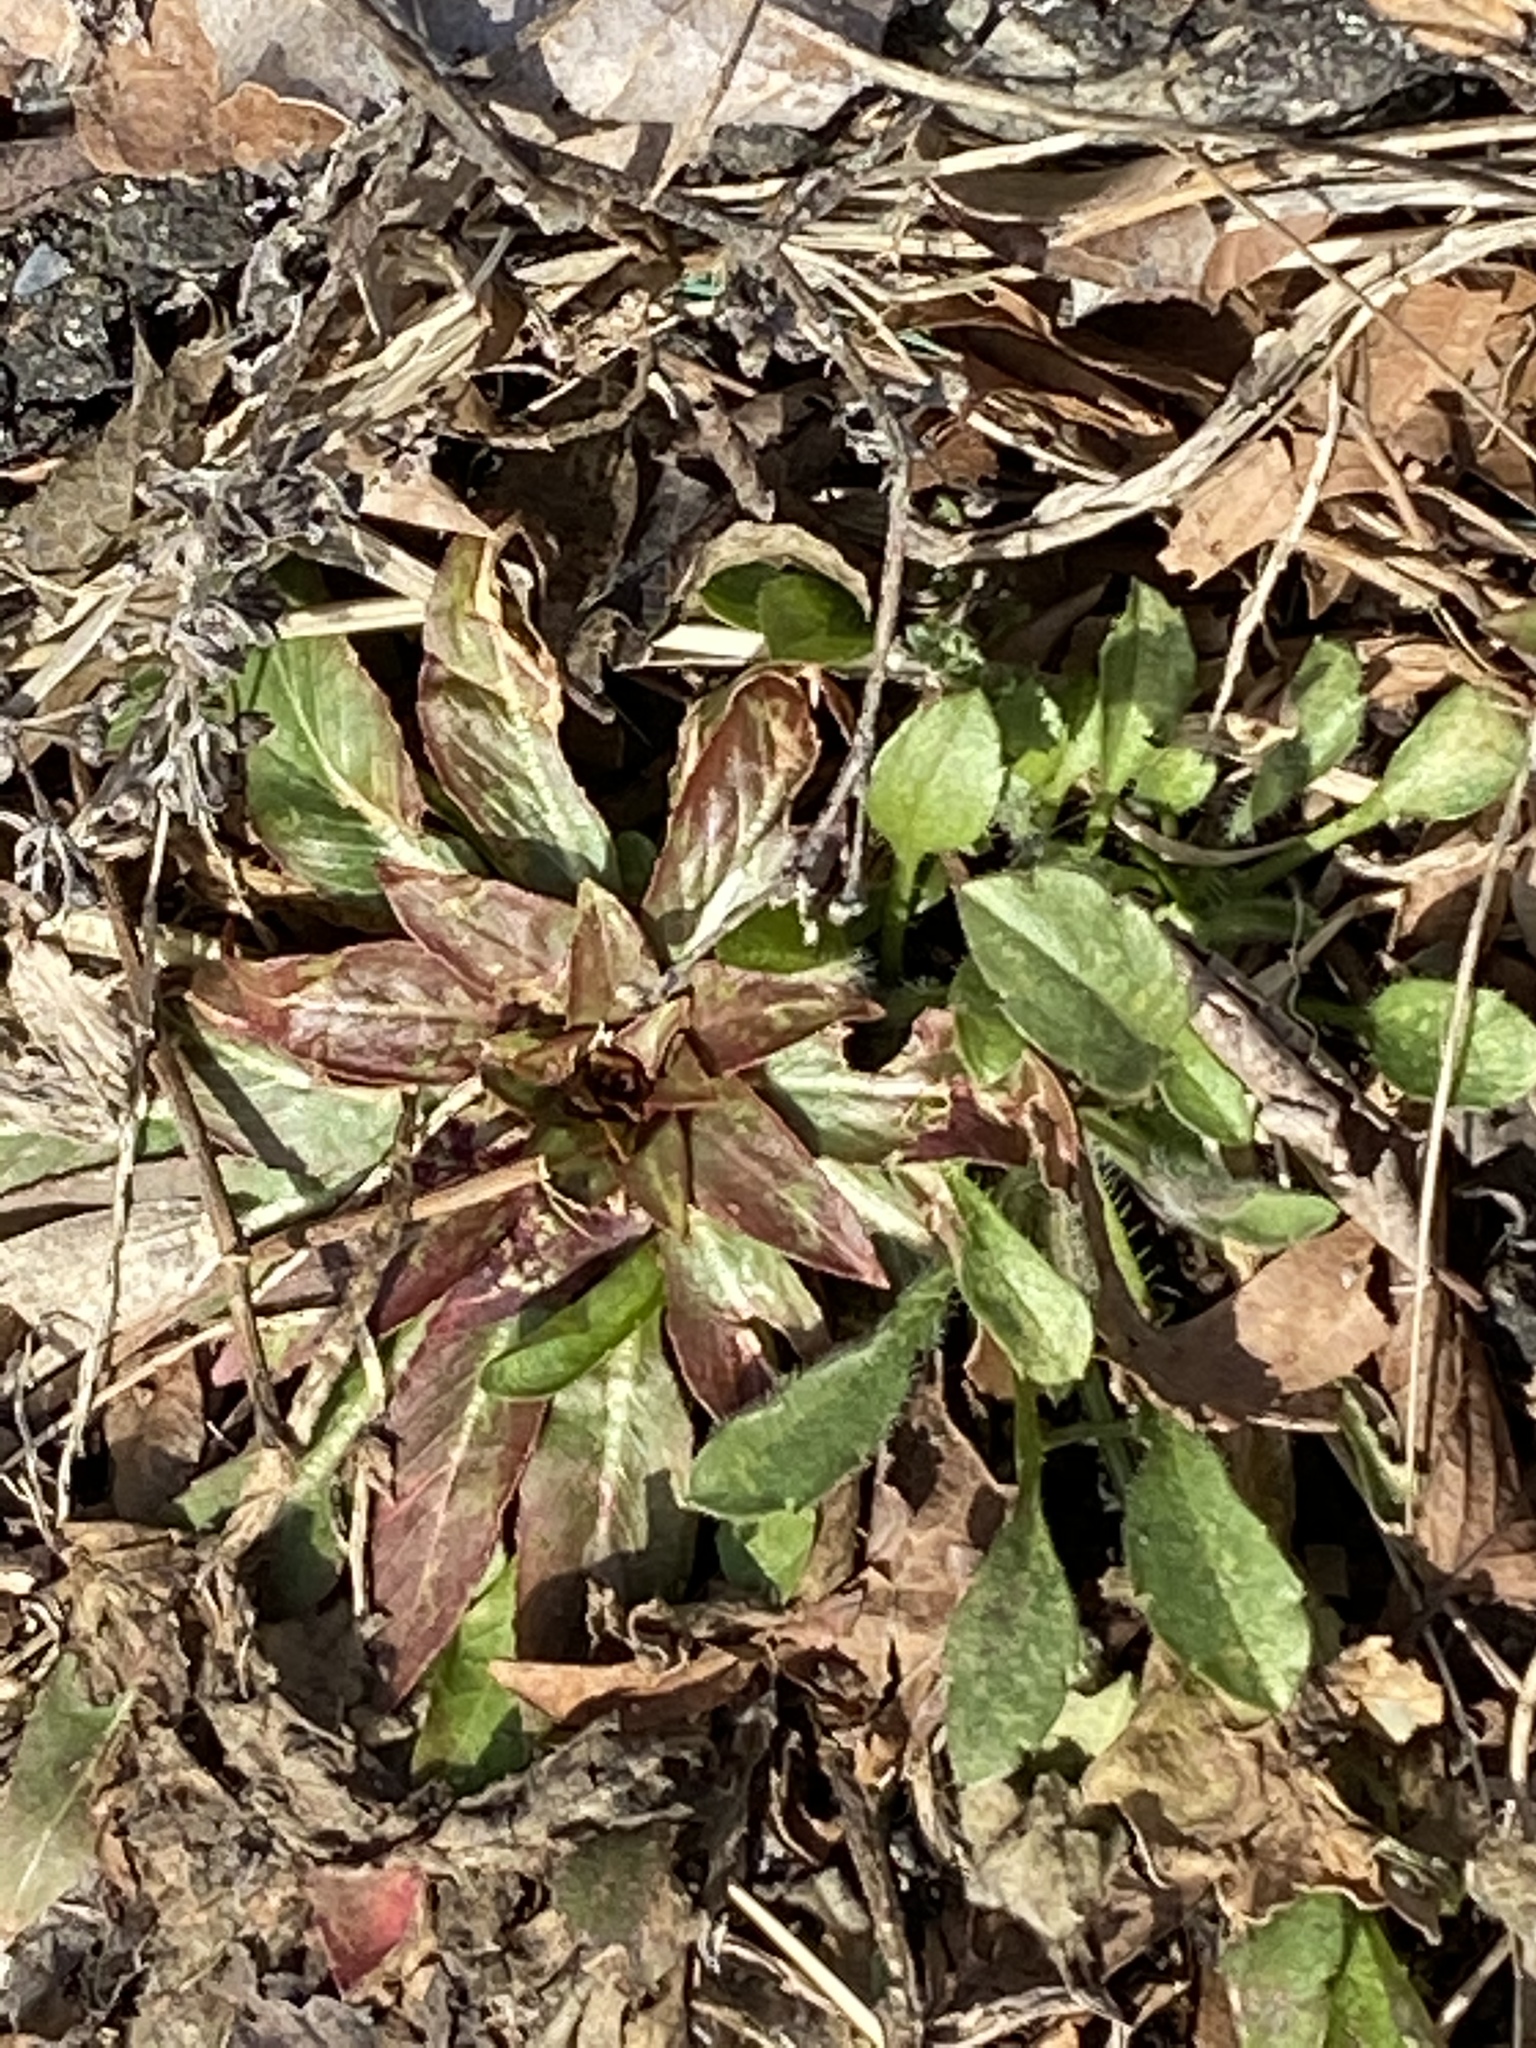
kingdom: Plantae
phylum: Tracheophyta
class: Magnoliopsida
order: Myrtales
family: Onagraceae
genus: Oenothera
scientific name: Oenothera biennis
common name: Common evening-primrose
